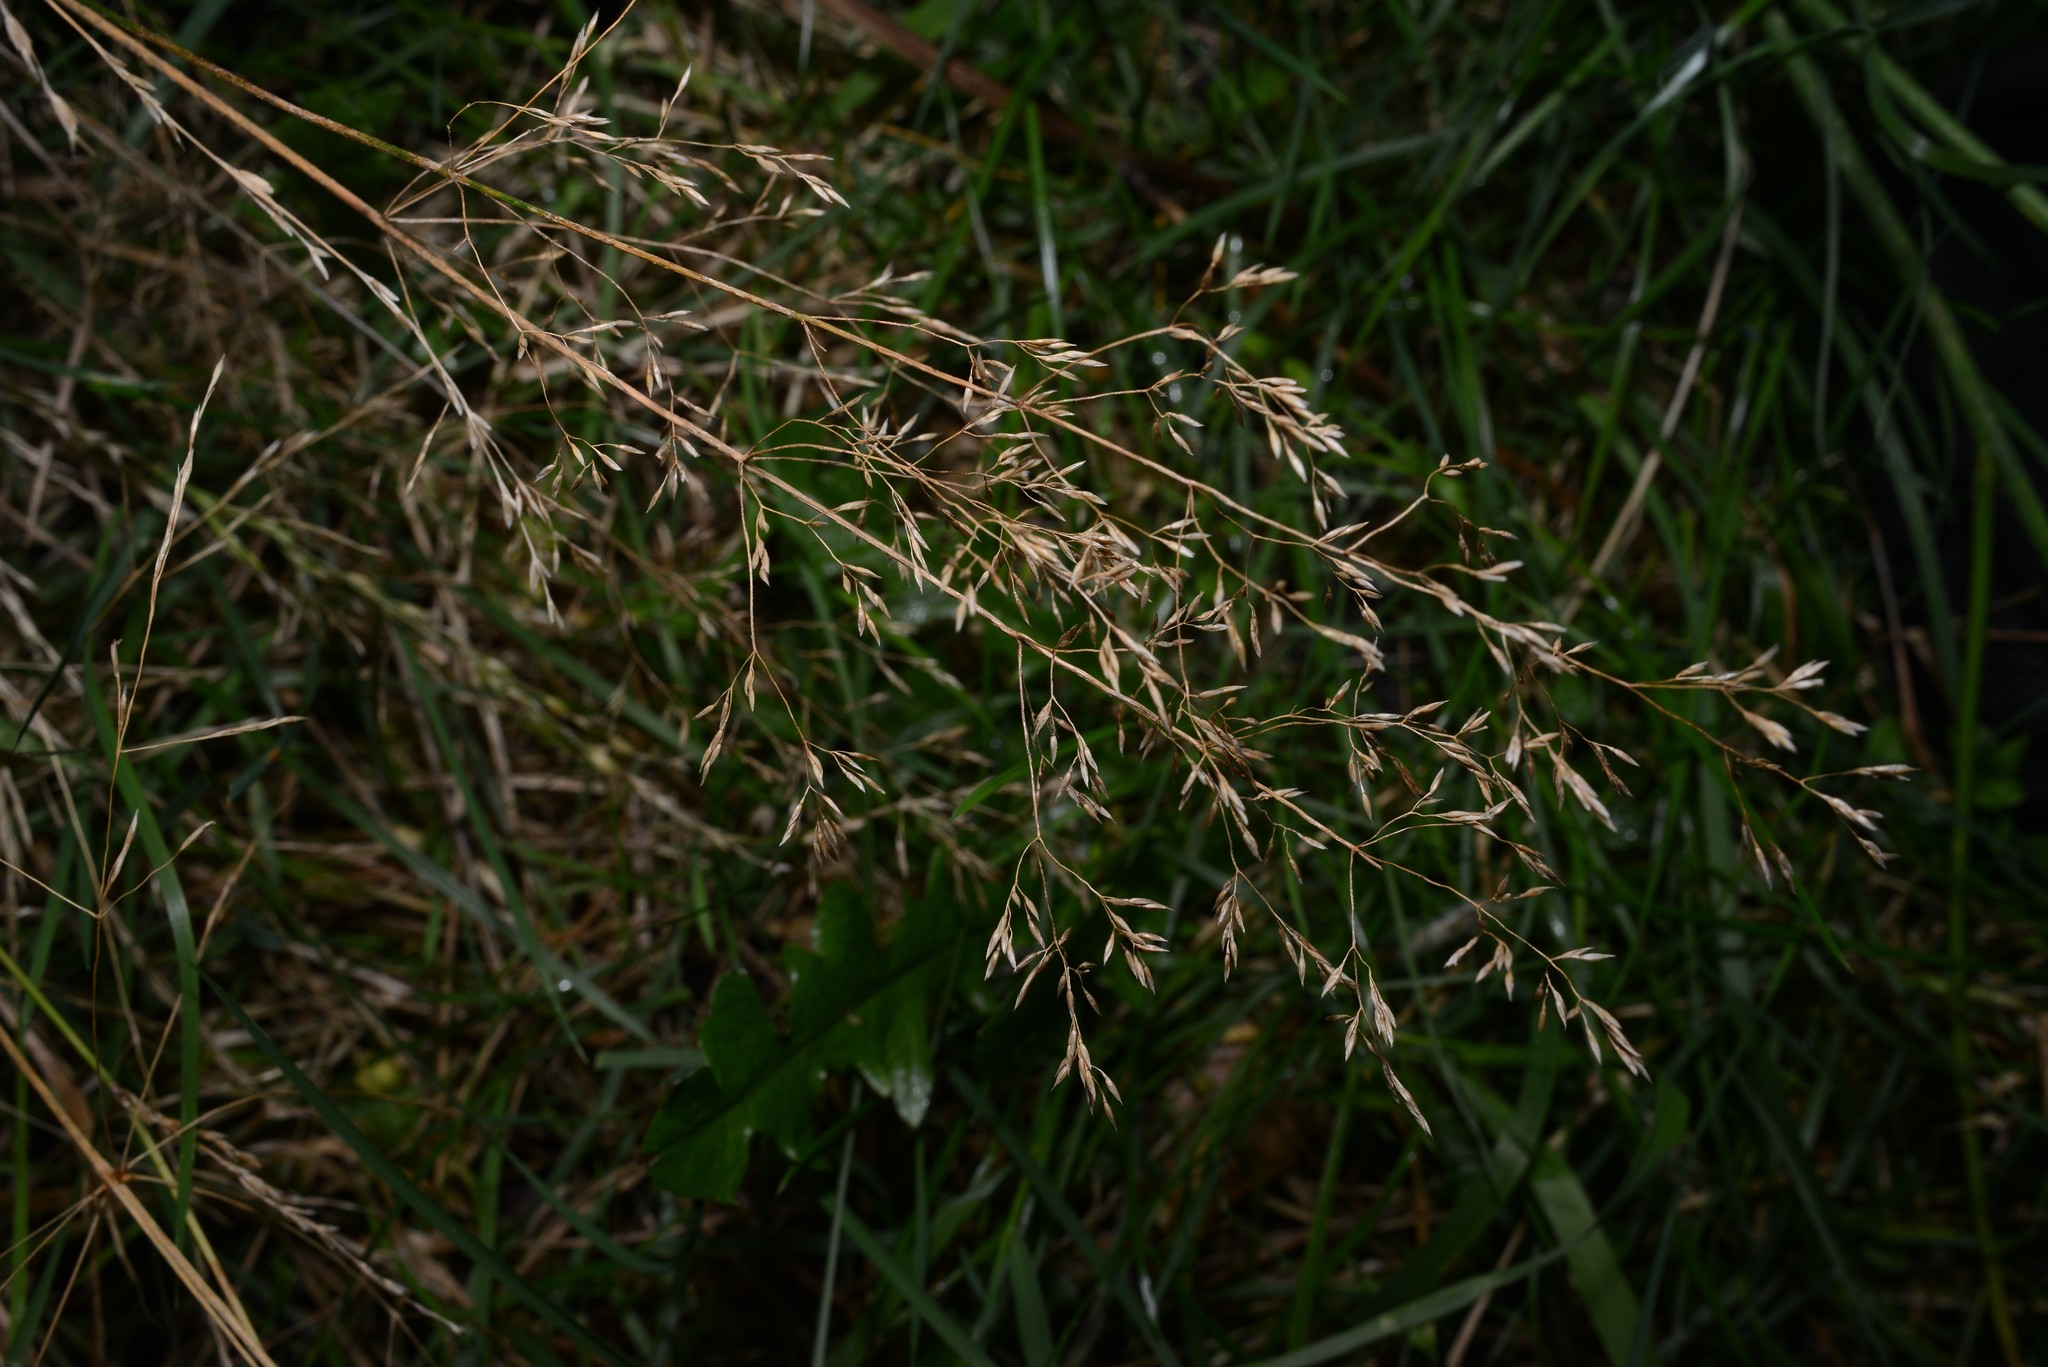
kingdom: Plantae
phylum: Tracheophyta
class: Liliopsida
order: Poales
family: Poaceae
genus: Agrostis
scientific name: Agrostis capillaris
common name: Colonial bentgrass
